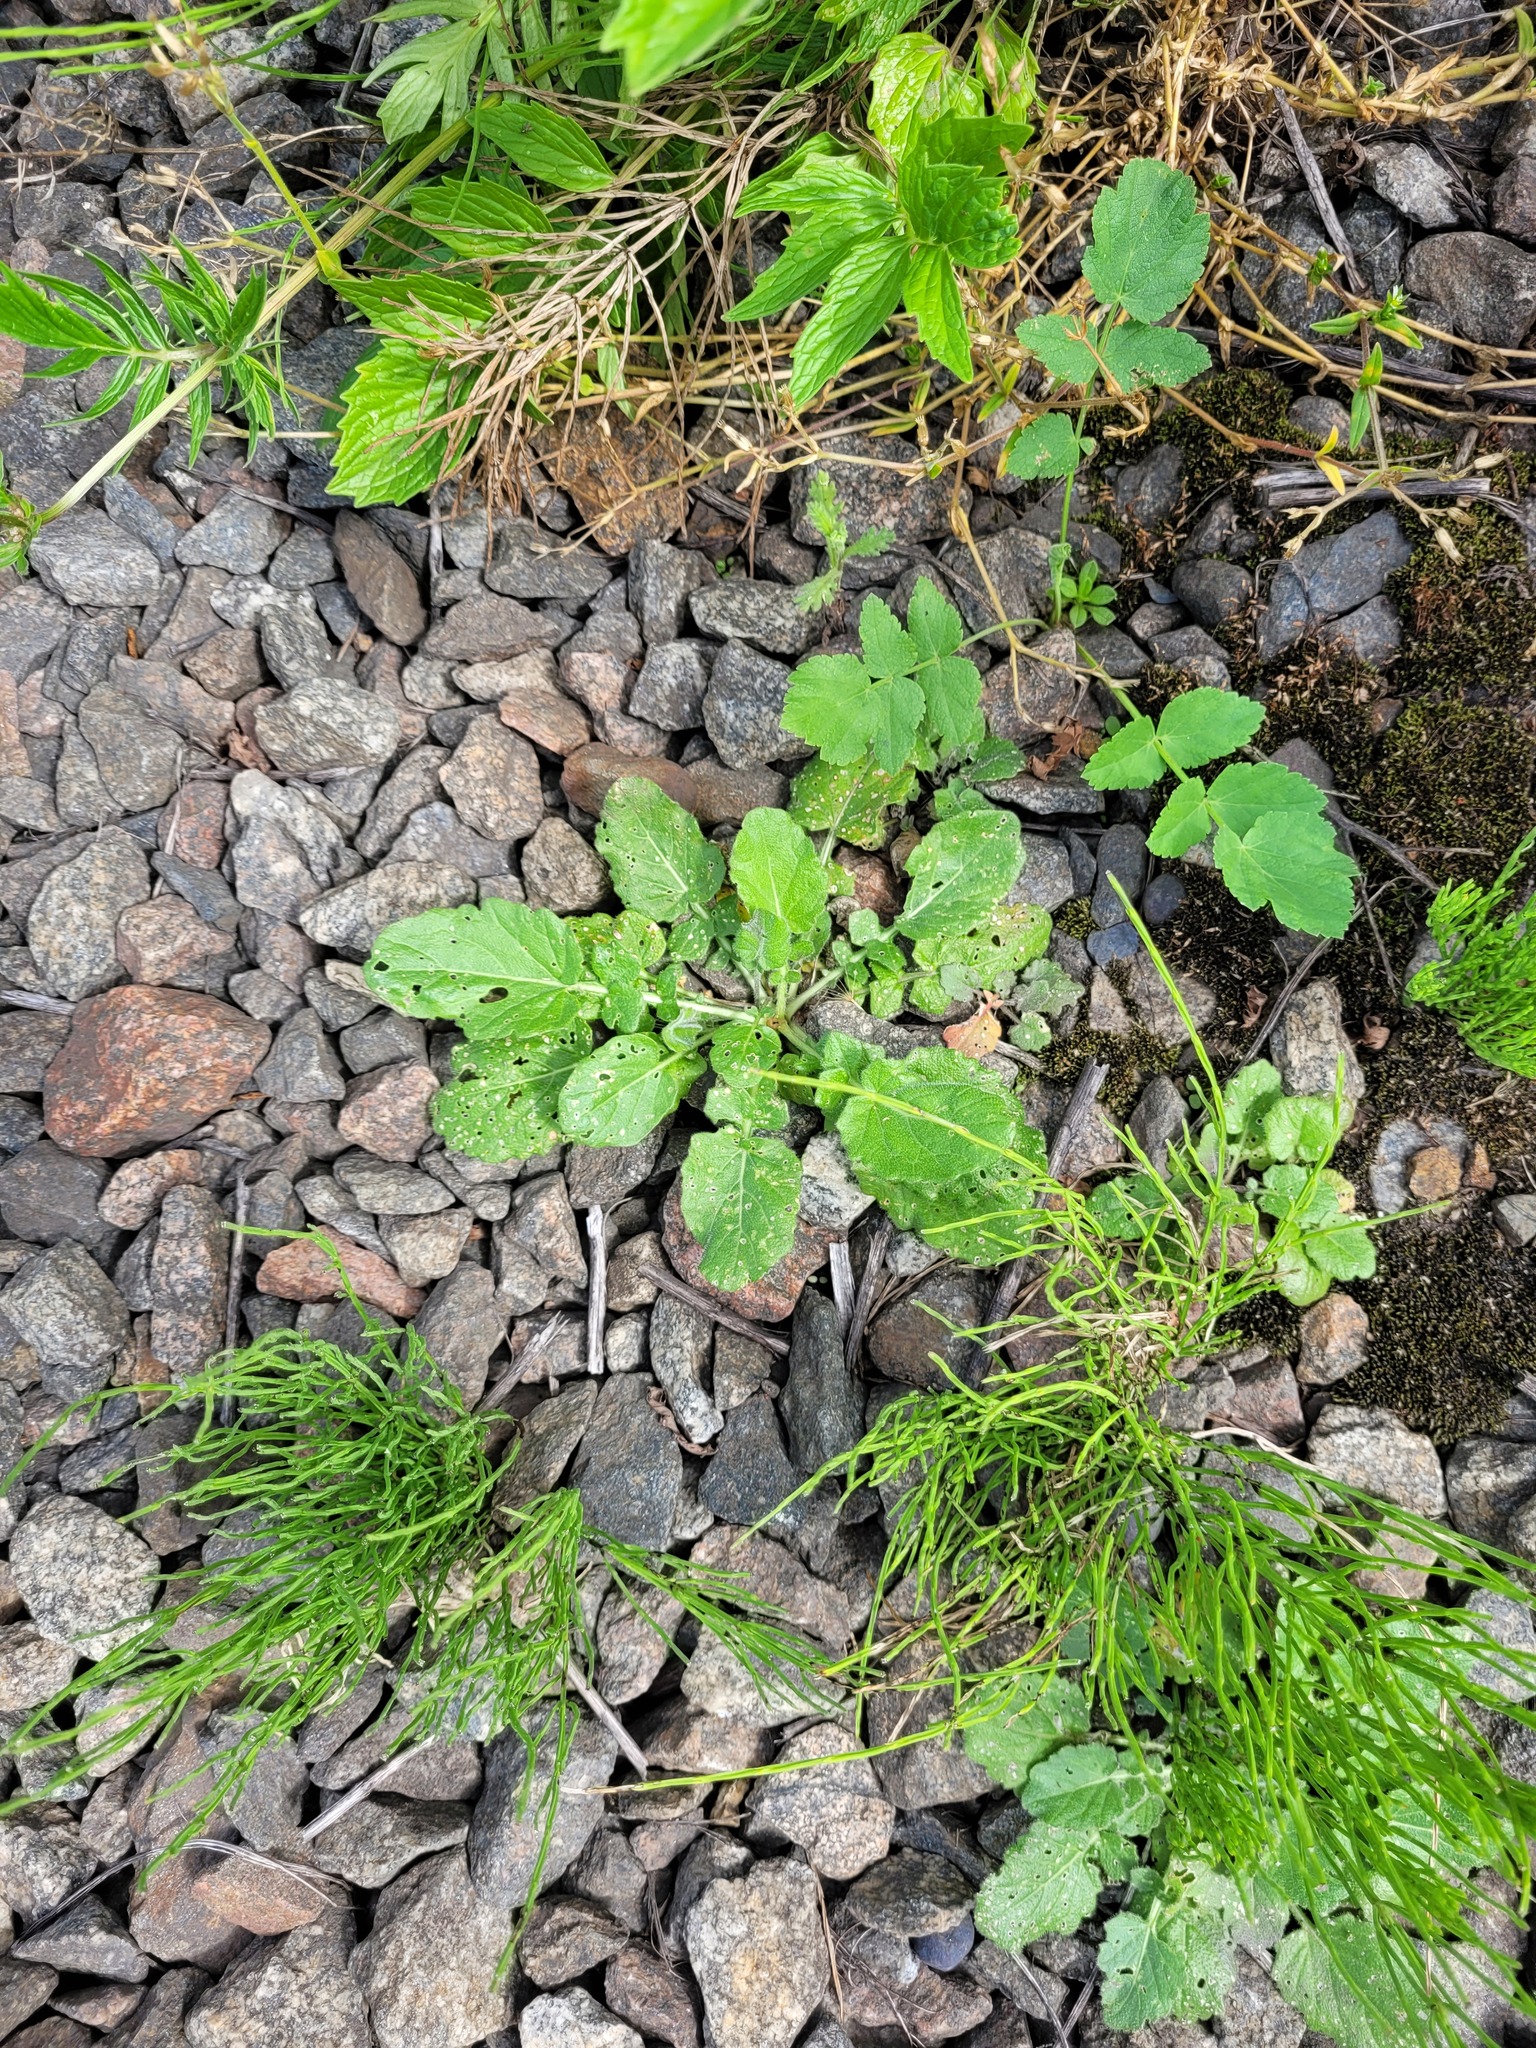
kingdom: Plantae
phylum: Tracheophyta
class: Magnoliopsida
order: Brassicales
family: Brassicaceae
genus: Barbarea
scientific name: Barbarea vulgaris
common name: Cressy-greens
